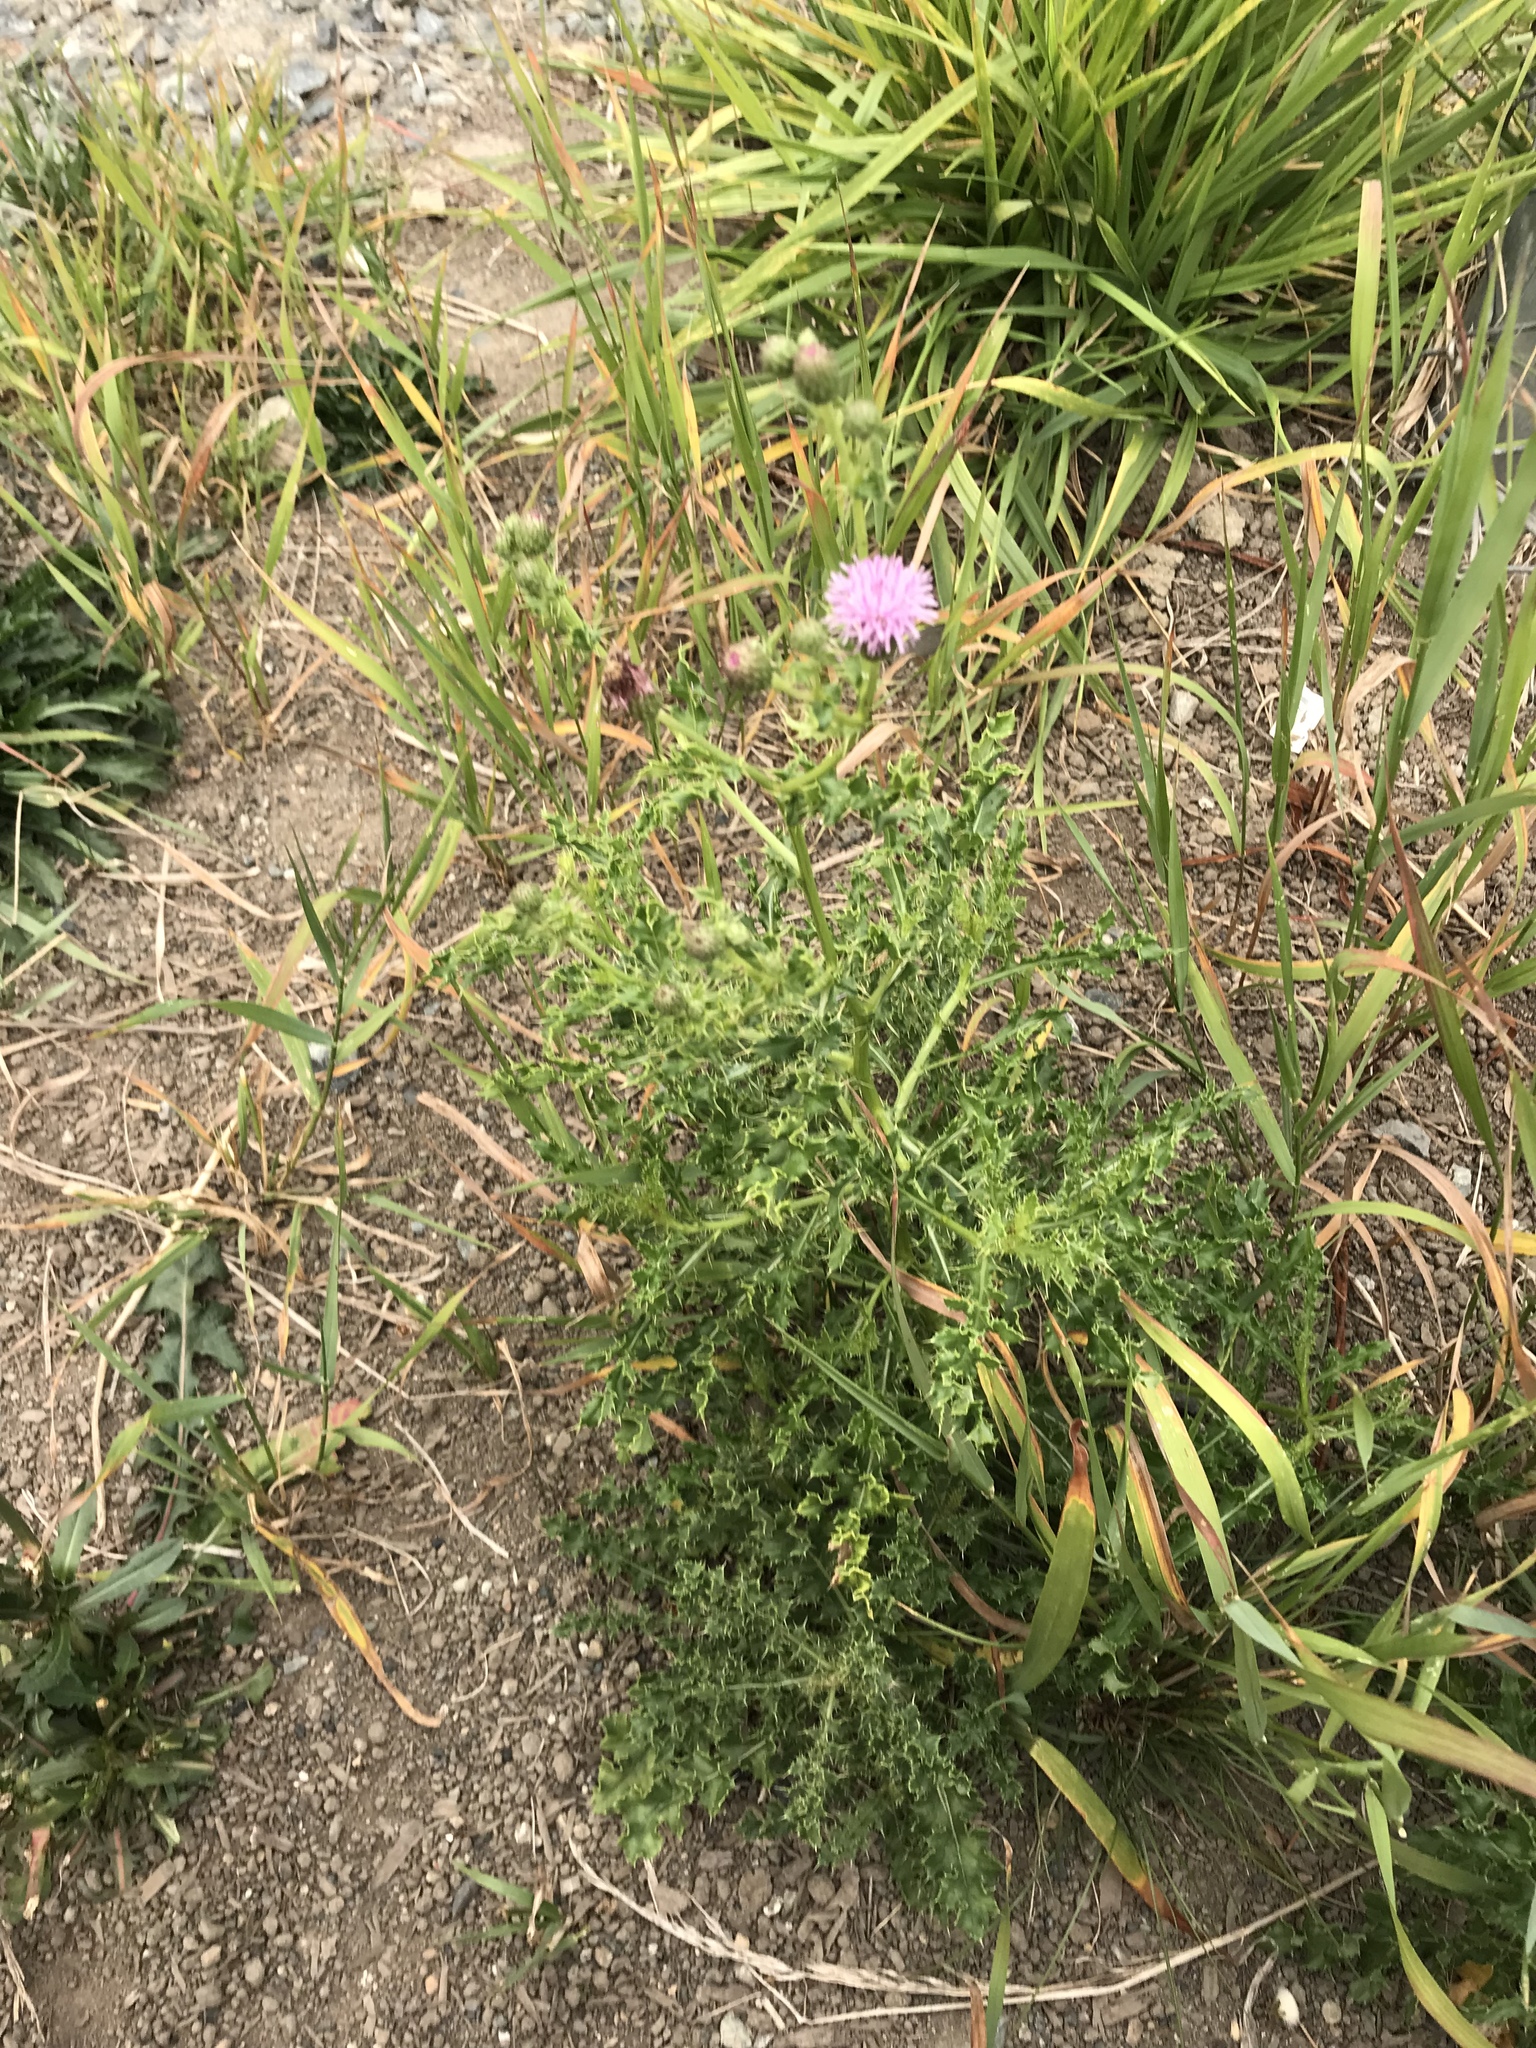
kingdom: Plantae
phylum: Tracheophyta
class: Magnoliopsida
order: Asterales
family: Asteraceae
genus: Cirsium
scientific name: Cirsium arvense
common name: Creeping thistle
